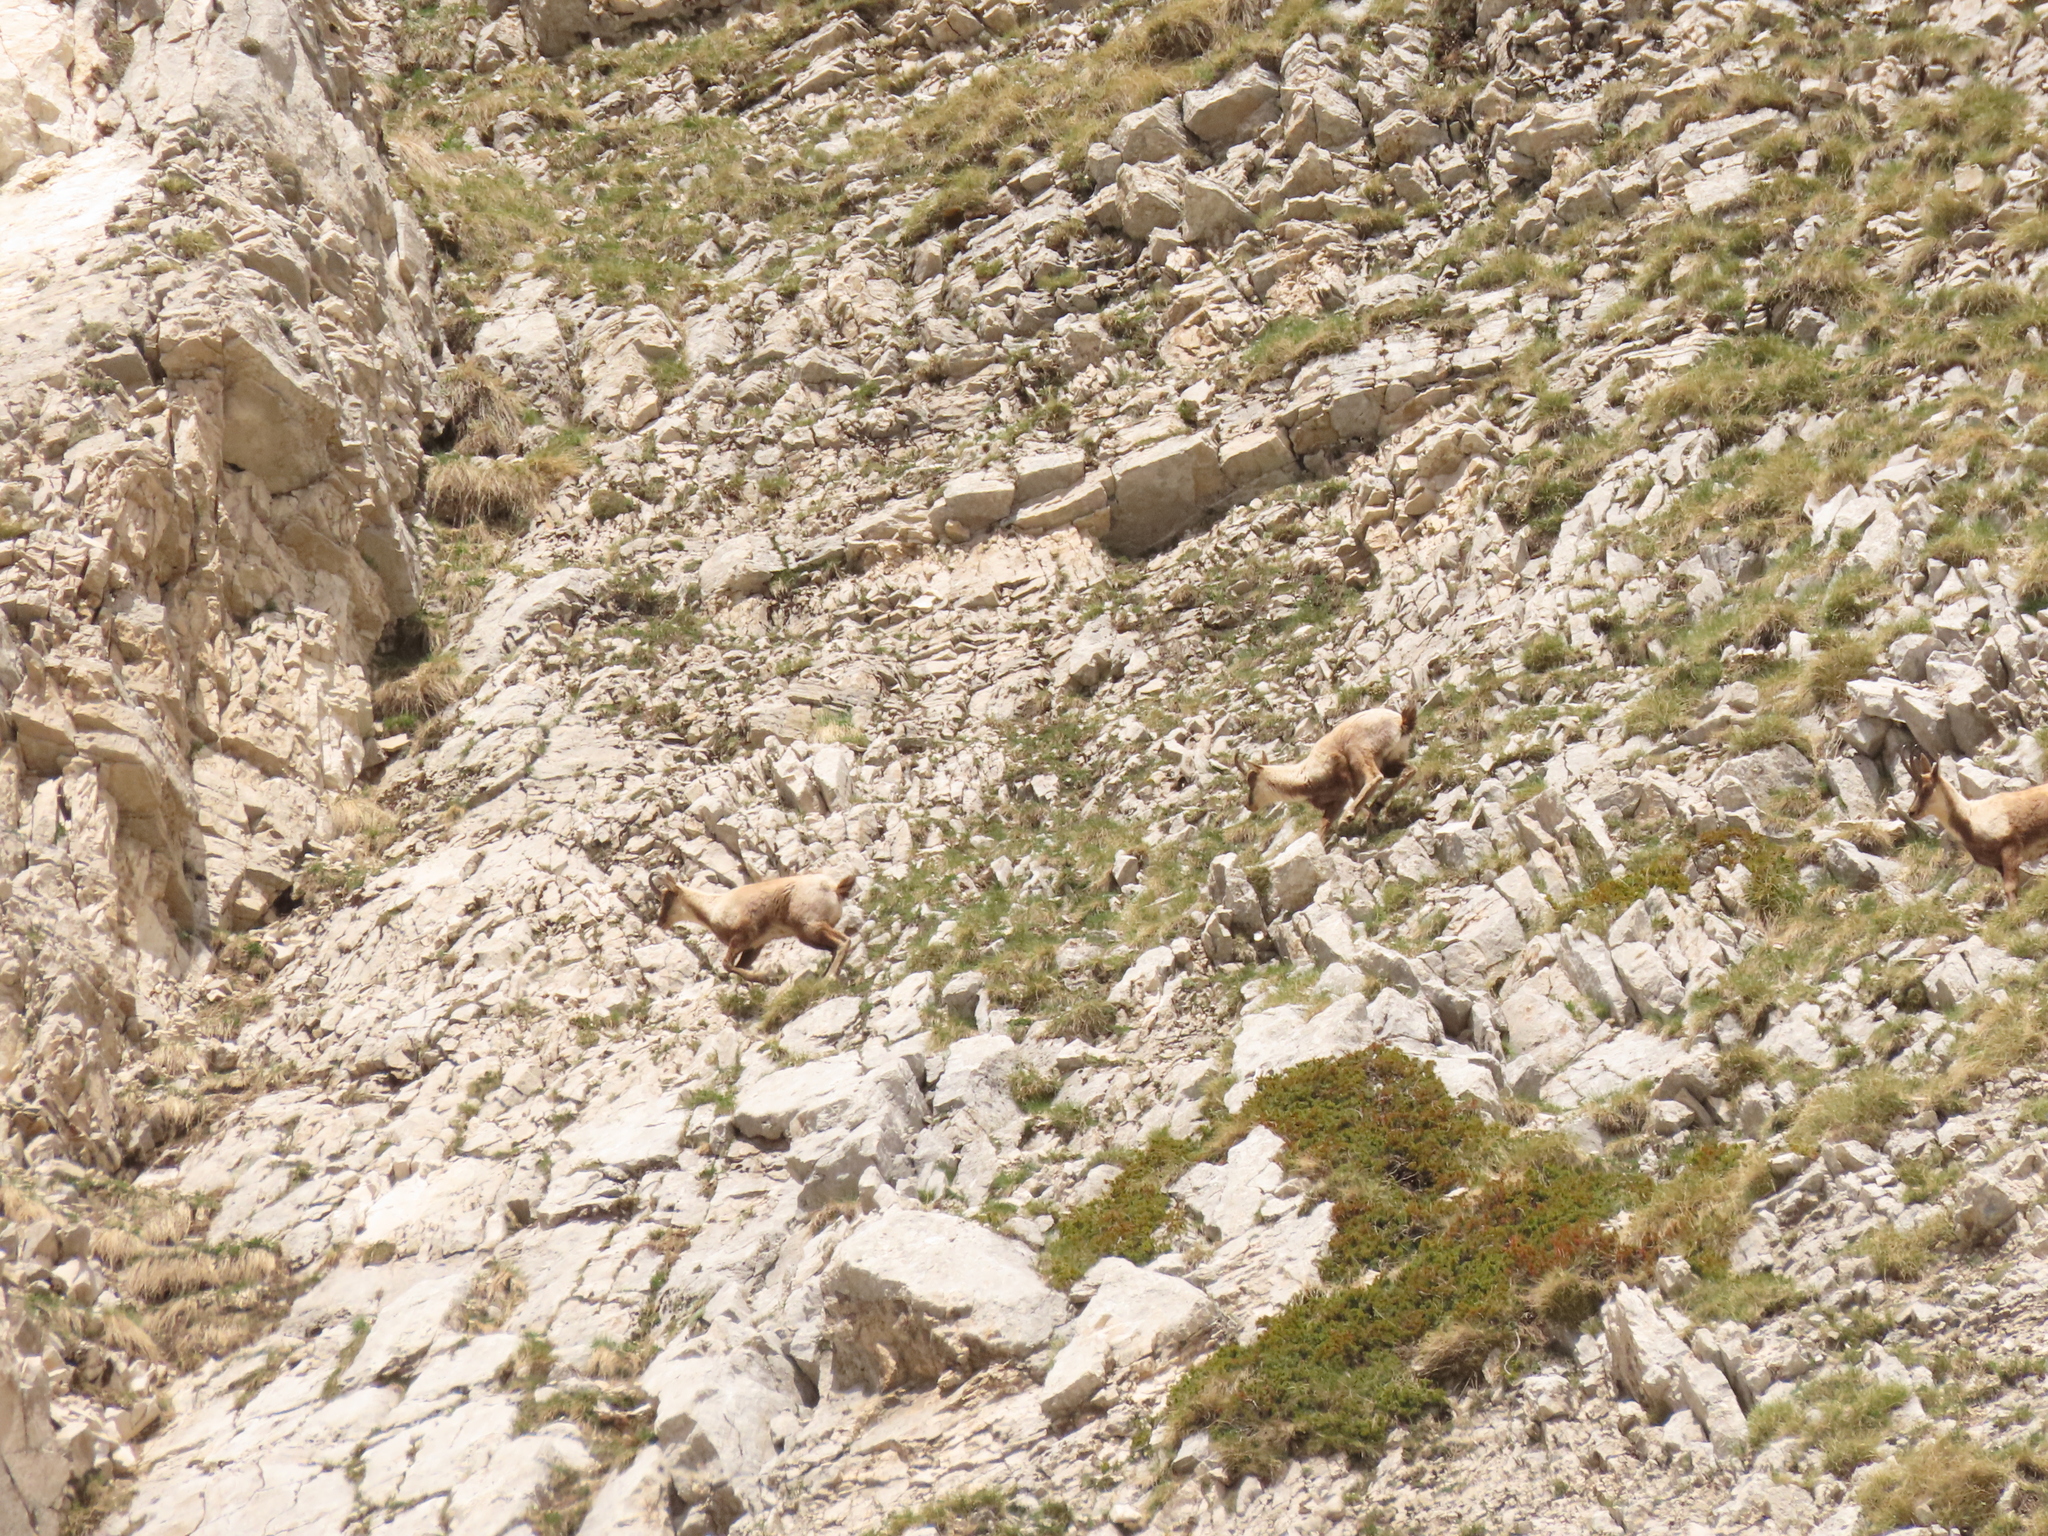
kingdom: Animalia
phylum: Chordata
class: Mammalia
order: Artiodactyla
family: Bovidae
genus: Rupicapra
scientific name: Rupicapra pyrenaica
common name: Pyrenean chamois
